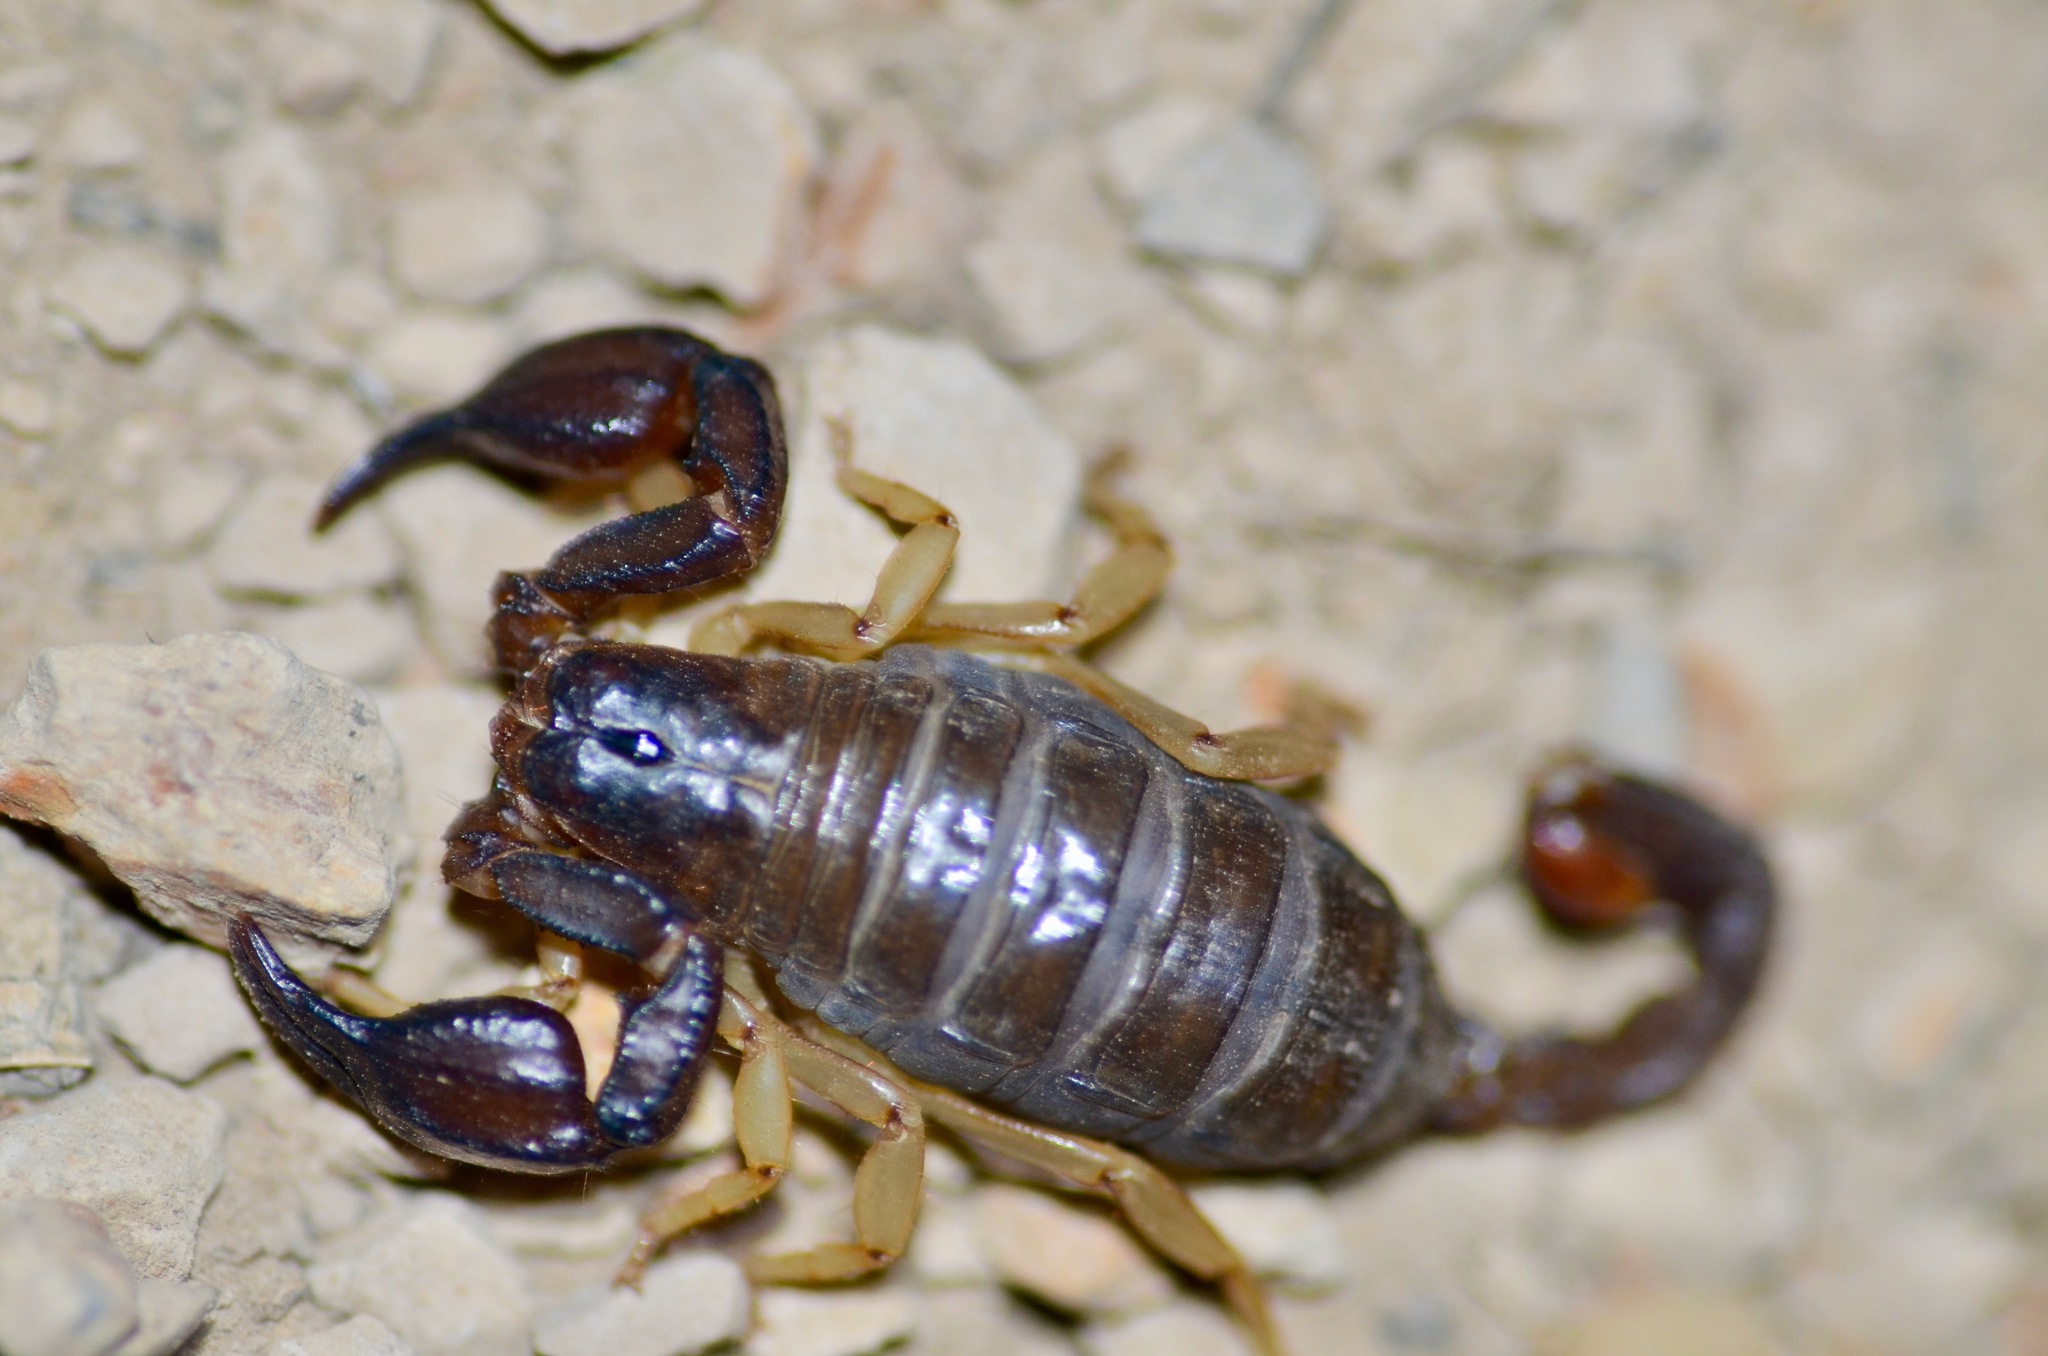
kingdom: Animalia
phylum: Arthropoda
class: Arachnida
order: Scorpiones
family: Chactidae
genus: Uroctonus
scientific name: Uroctonus mordax
